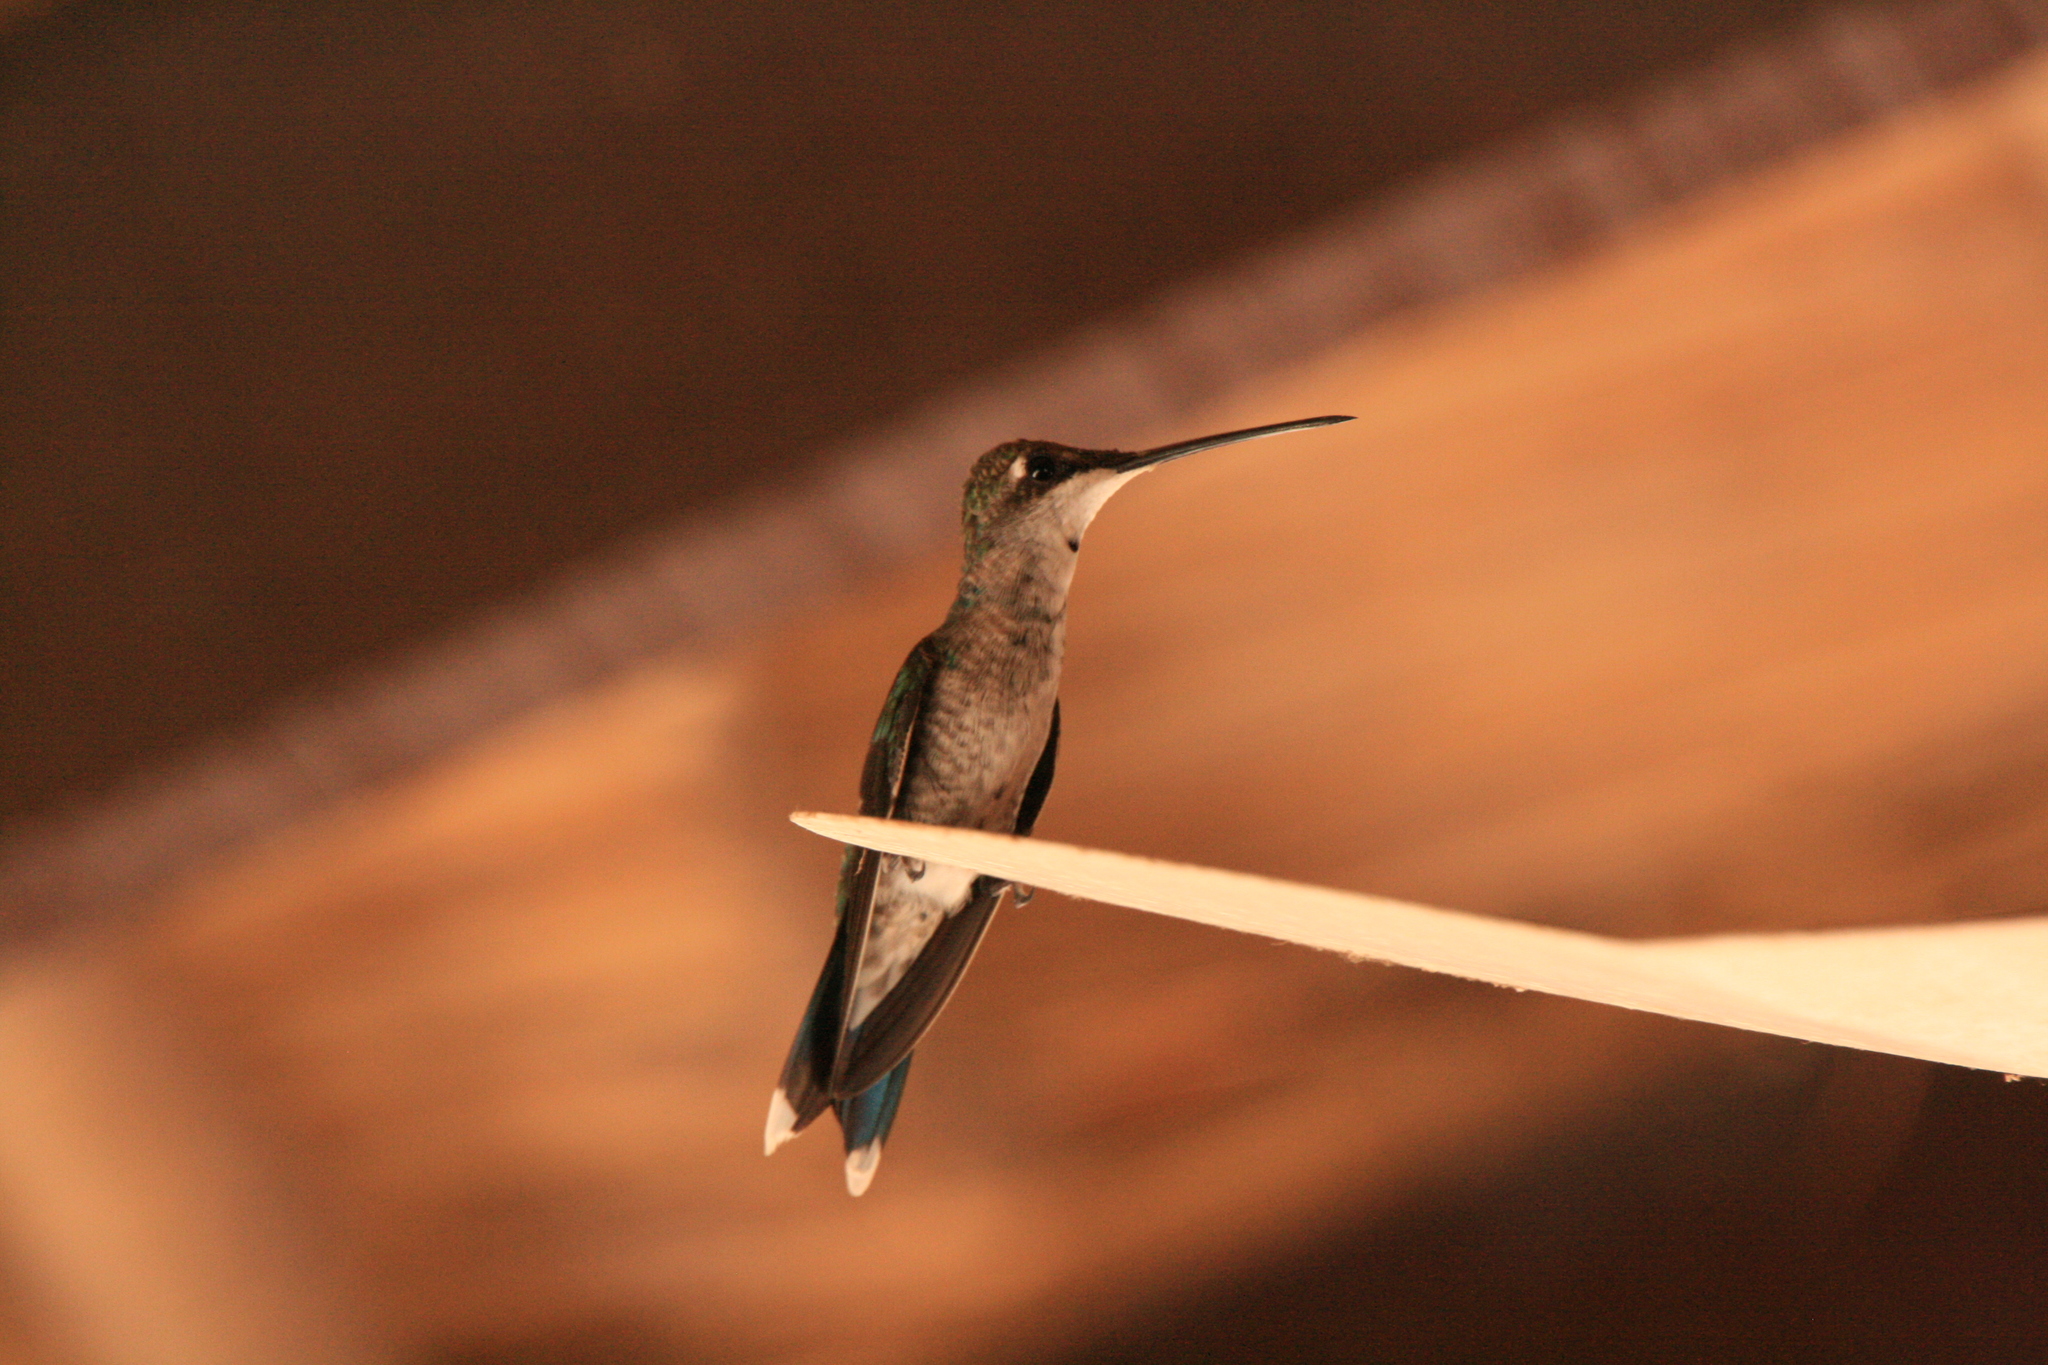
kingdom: Animalia
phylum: Chordata
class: Aves
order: Apodiformes
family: Trochilidae
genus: Heliomaster
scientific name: Heliomaster furcifer
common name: Blue-tufted starthroat
